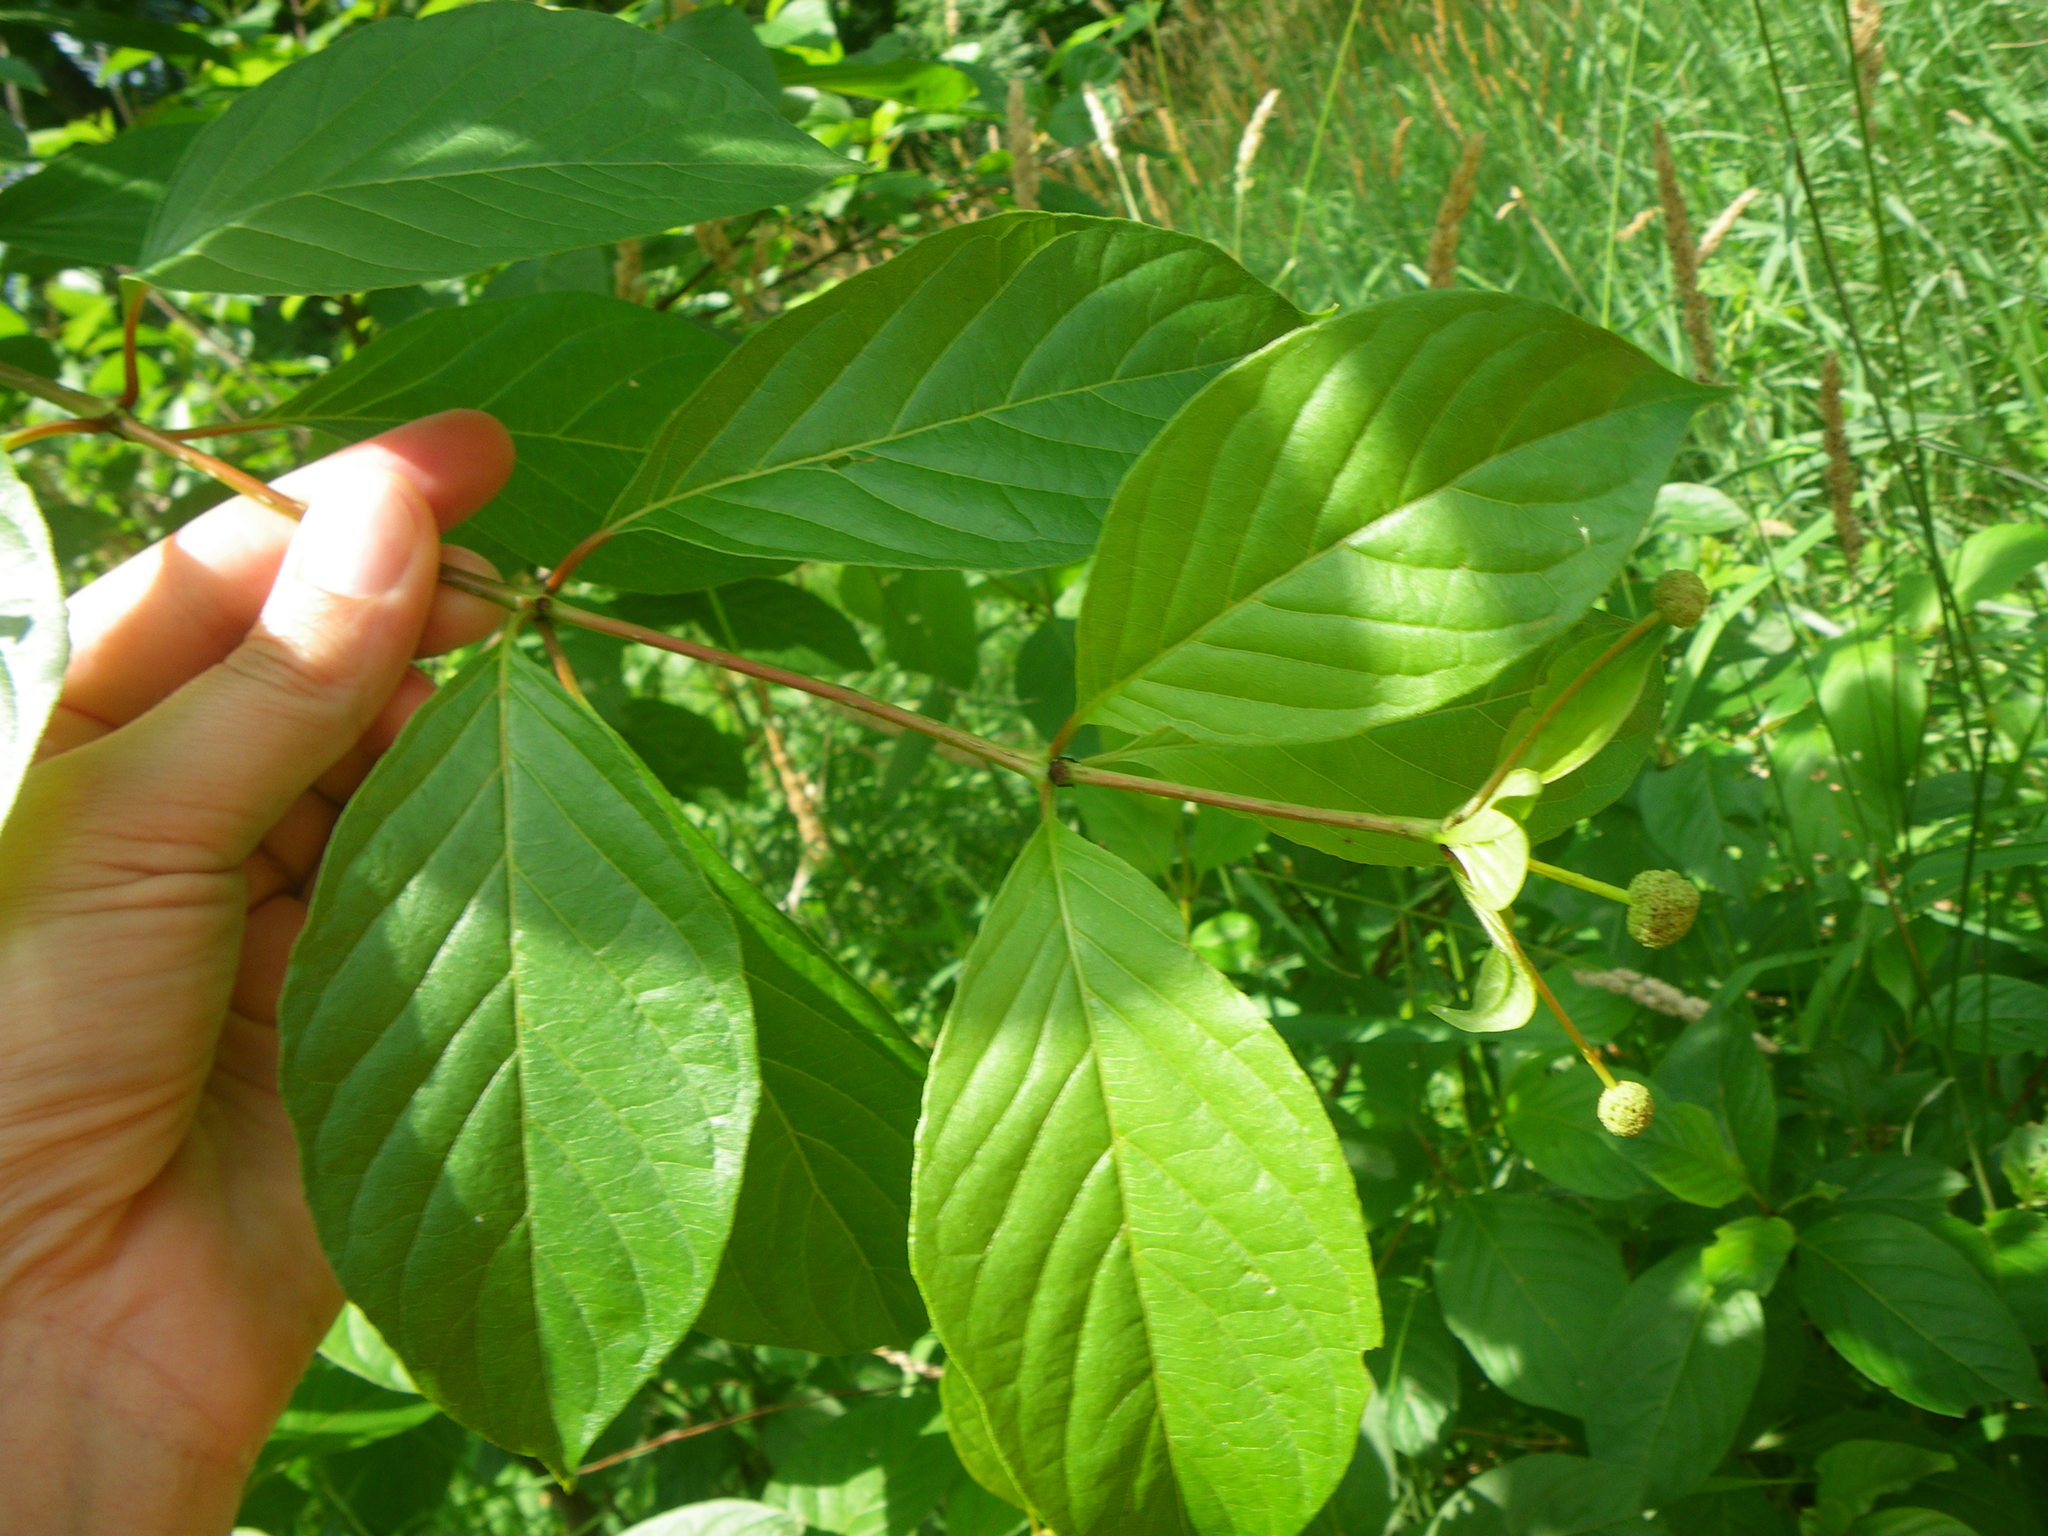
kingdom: Plantae
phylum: Tracheophyta
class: Magnoliopsida
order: Gentianales
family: Rubiaceae
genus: Cephalanthus
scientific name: Cephalanthus occidentalis
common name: Button-willow
